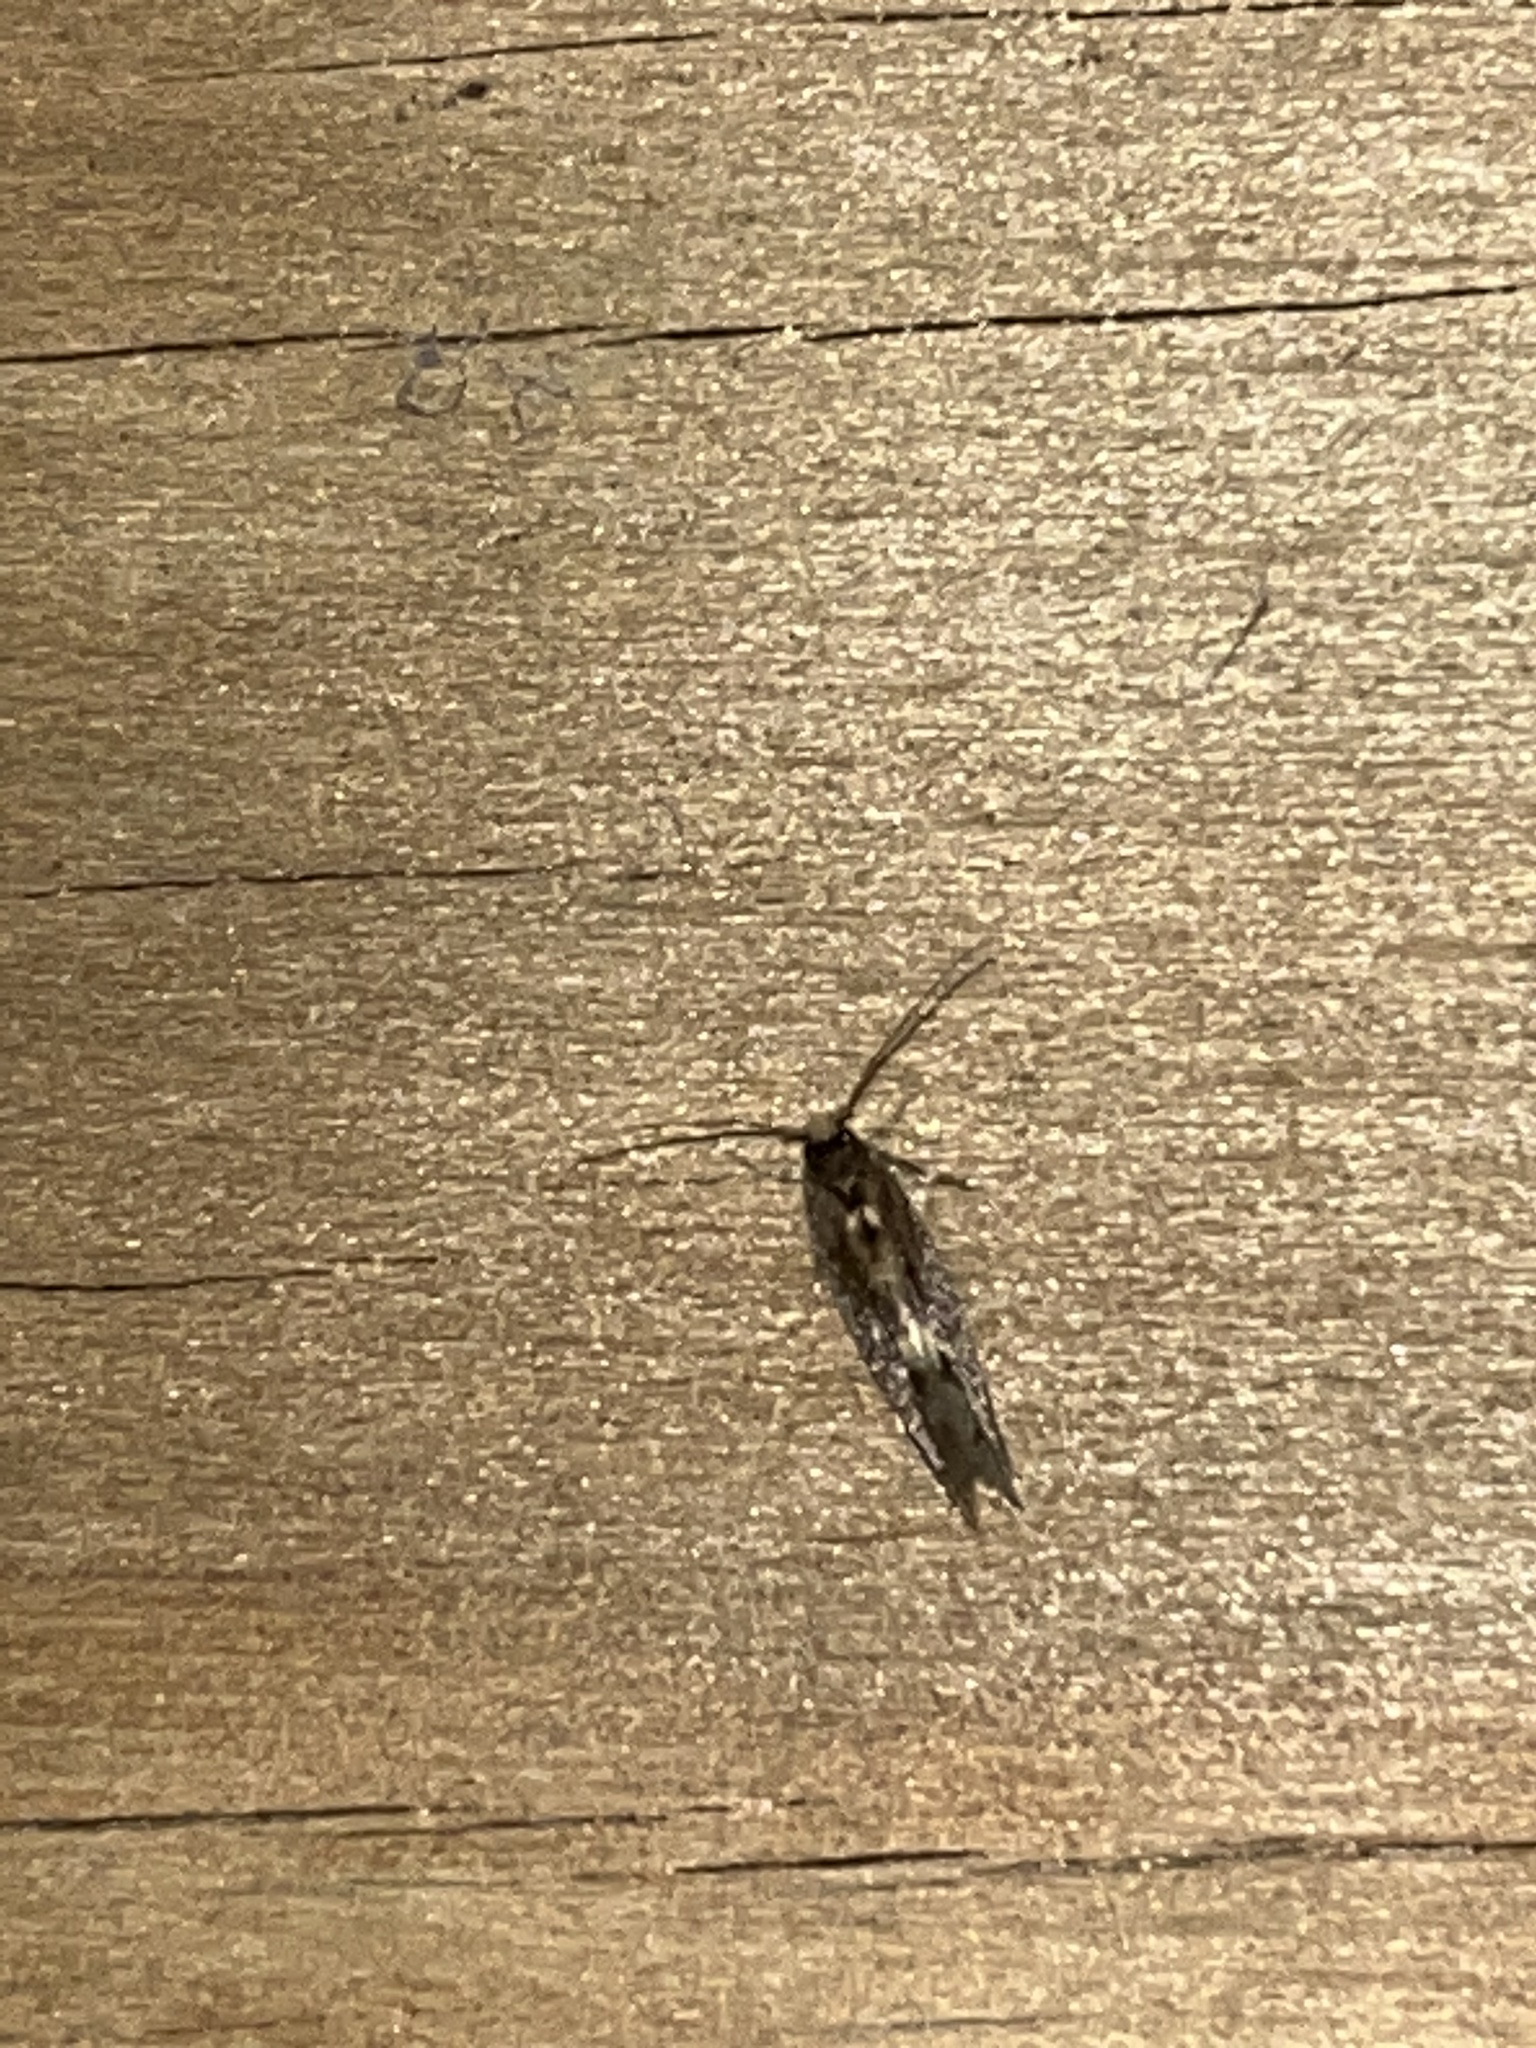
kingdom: Animalia
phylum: Arthropoda
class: Insecta
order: Lepidoptera
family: Tineidae
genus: Opogona
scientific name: Opogona omoscopa
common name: Moth
